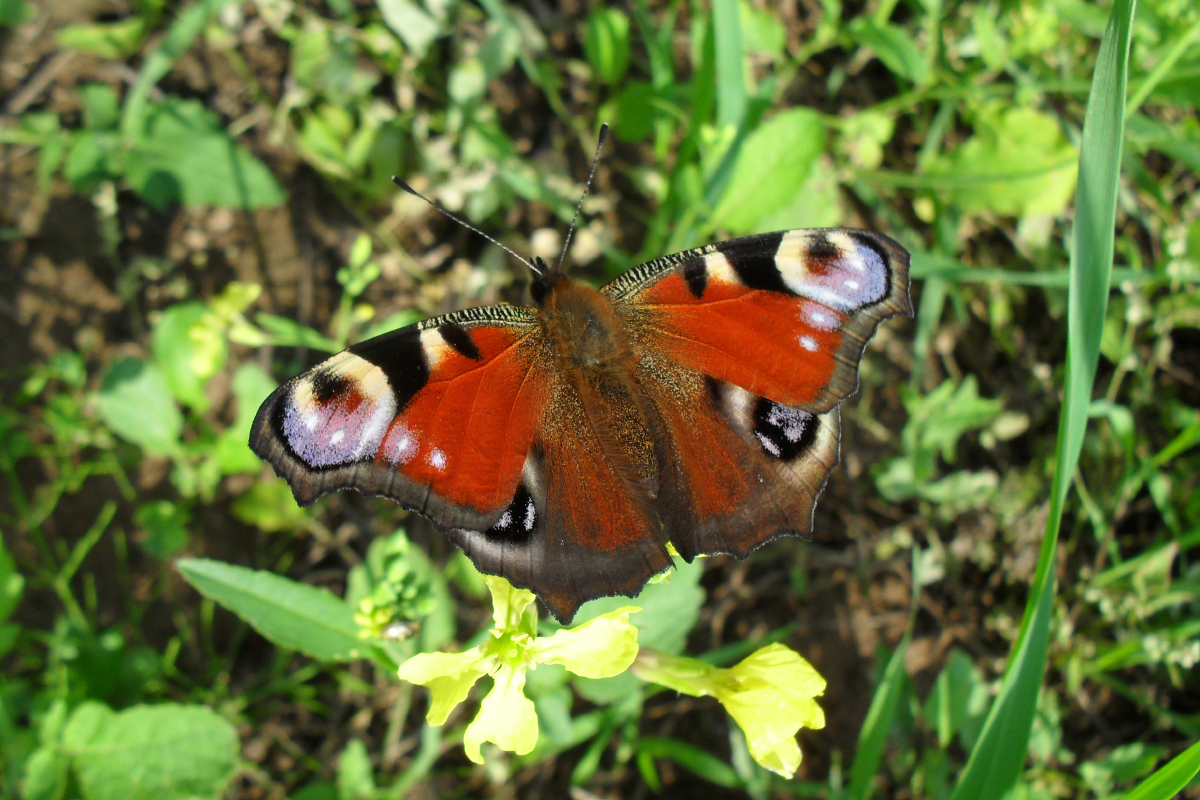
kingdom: Animalia
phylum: Arthropoda
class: Insecta
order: Lepidoptera
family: Nymphalidae
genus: Aglais
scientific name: Aglais io
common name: Peacock
